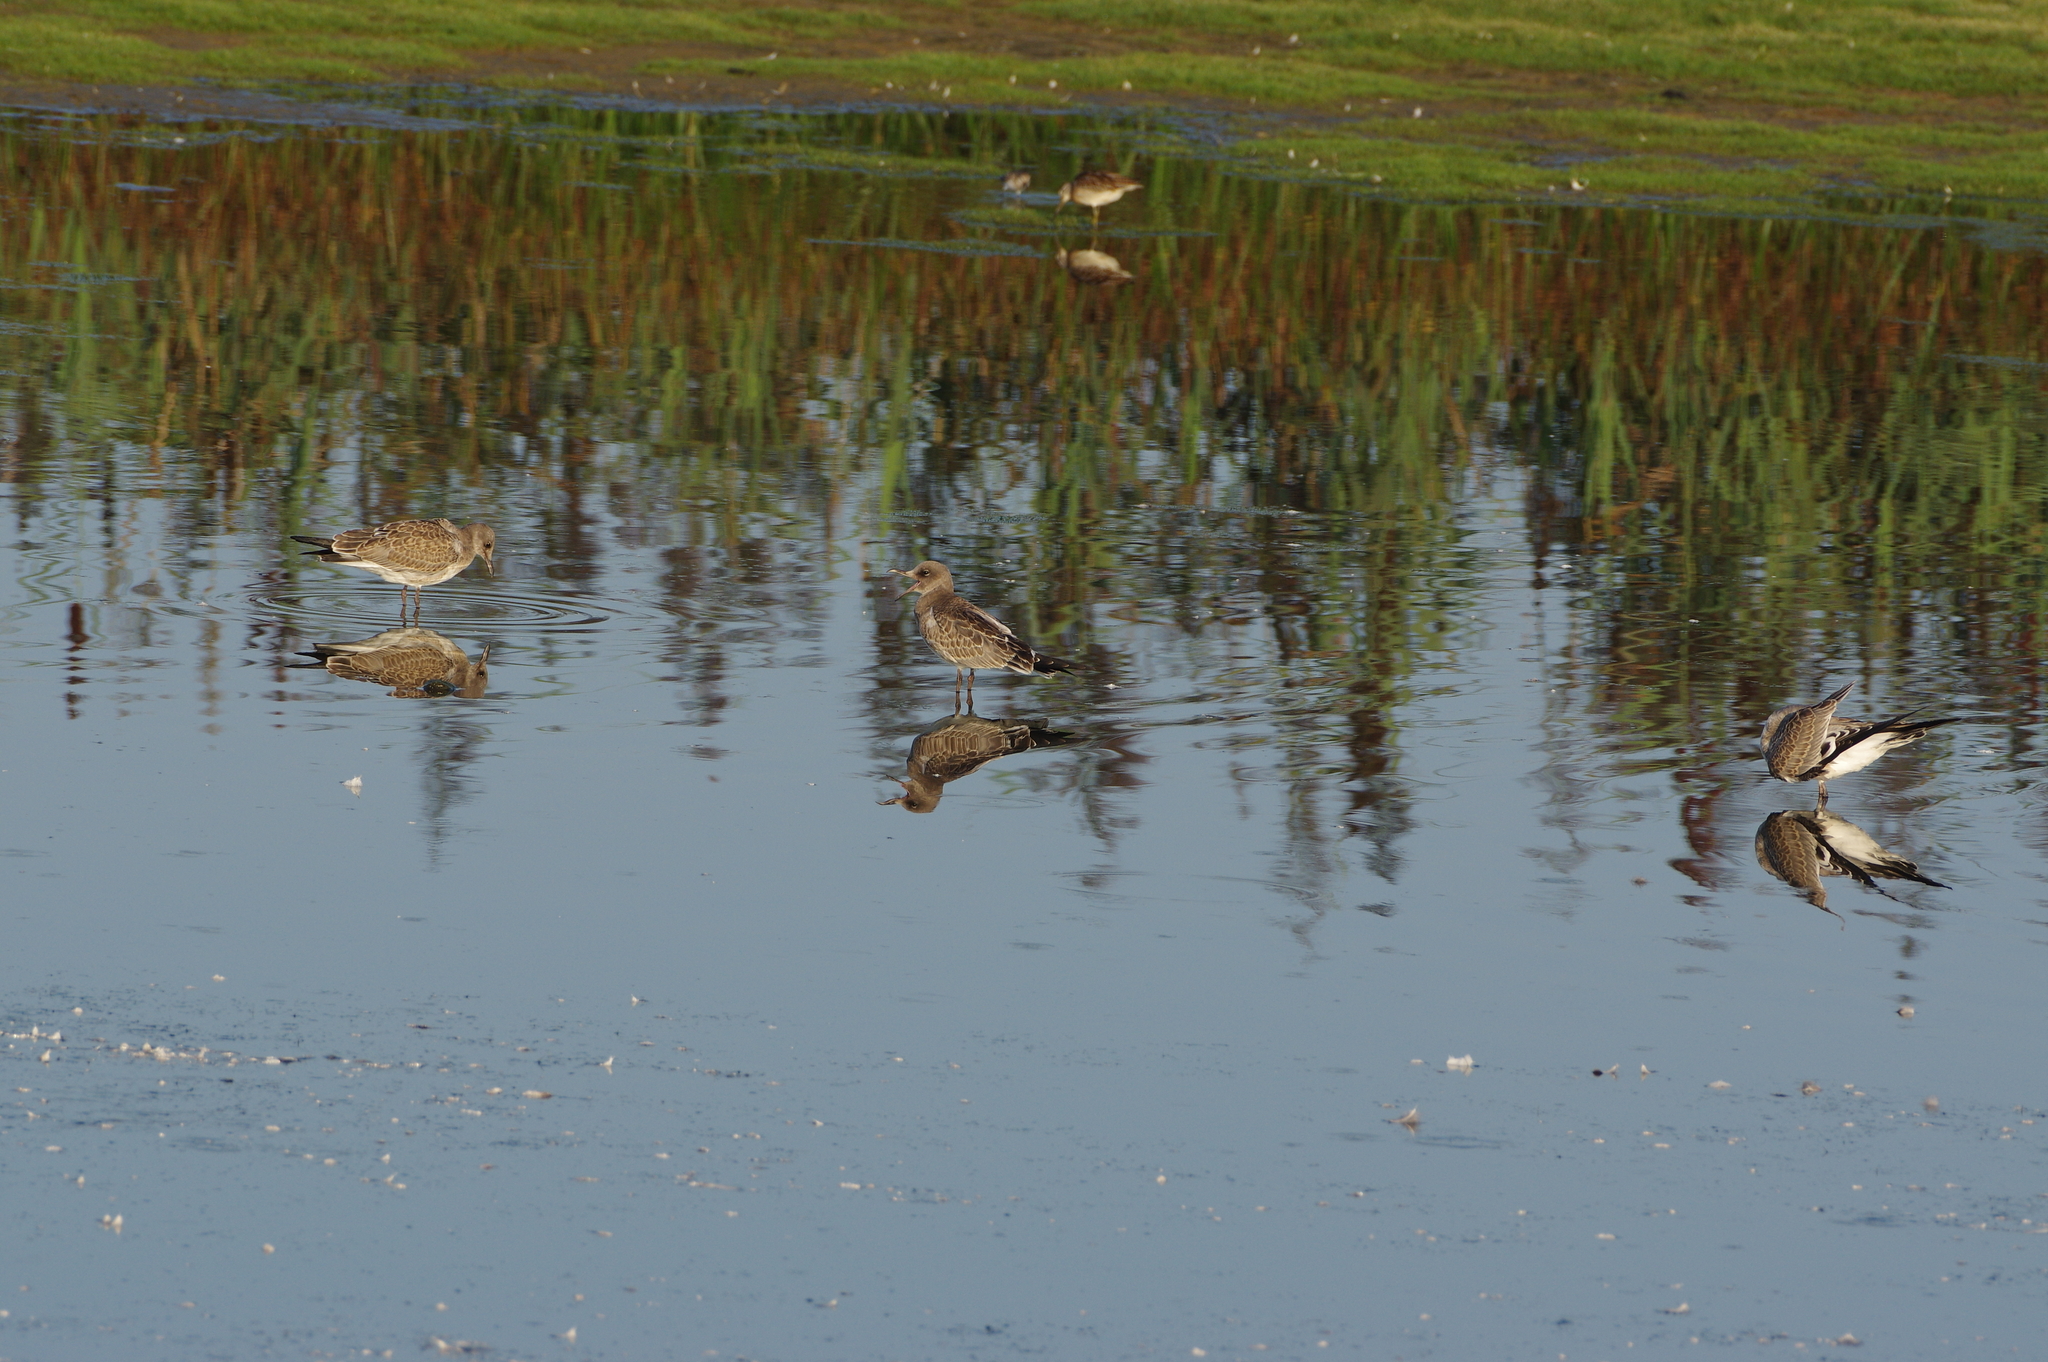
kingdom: Animalia
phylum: Chordata
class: Aves
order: Charadriiformes
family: Laridae
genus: Leucophaeus
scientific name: Leucophaeus atricilla
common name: Laughing gull
